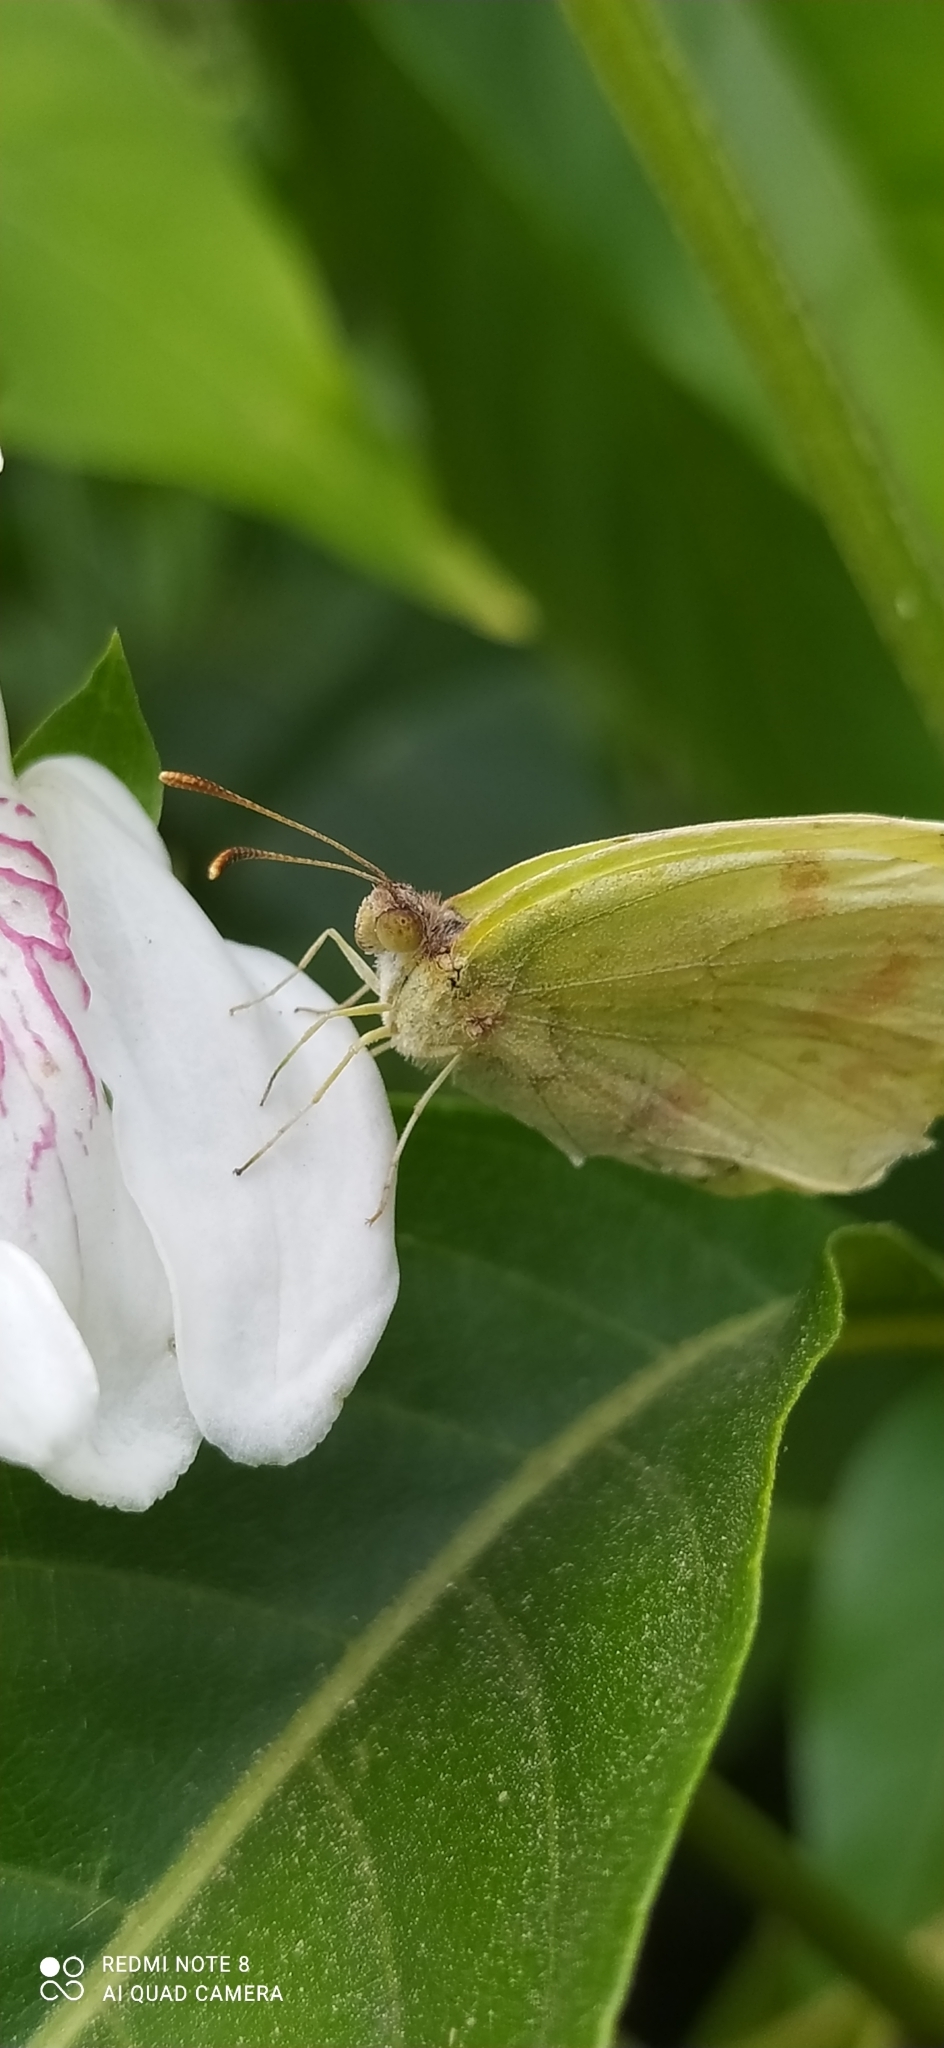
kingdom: Animalia
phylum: Arthropoda
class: Insecta
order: Lepidoptera
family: Pieridae
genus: Teriocolias
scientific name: Teriocolias
